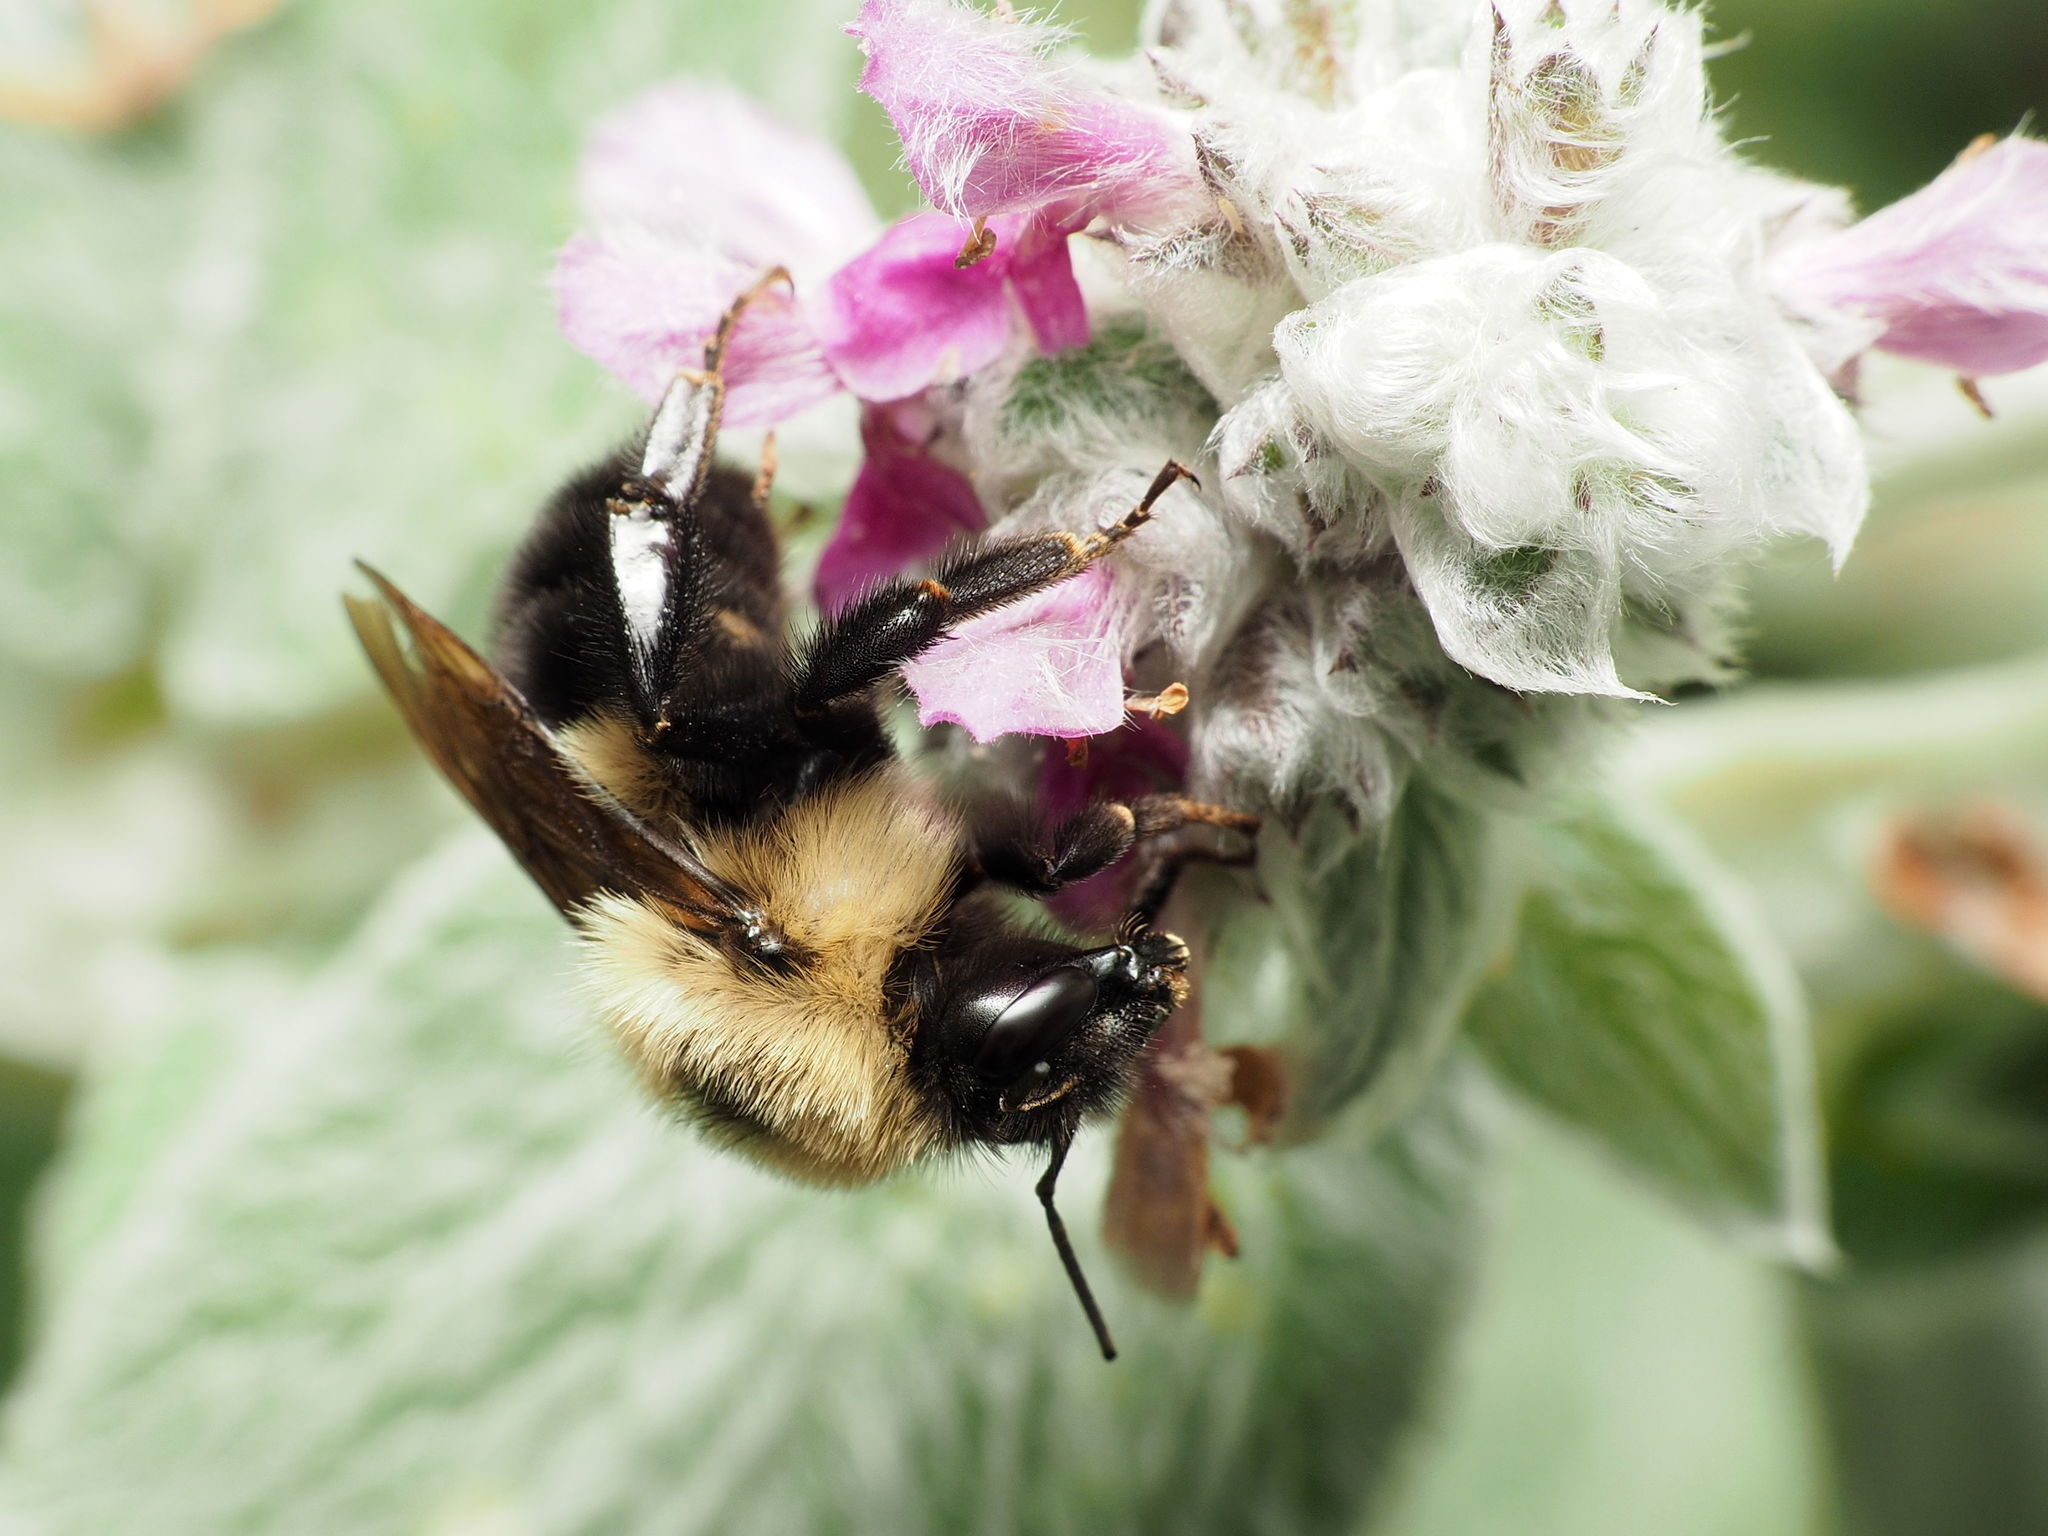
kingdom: Animalia
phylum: Arthropoda
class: Insecta
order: Hymenoptera
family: Apidae
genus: Bombus
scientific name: Bombus bimaculatus
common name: Two-spotted bumble bee
